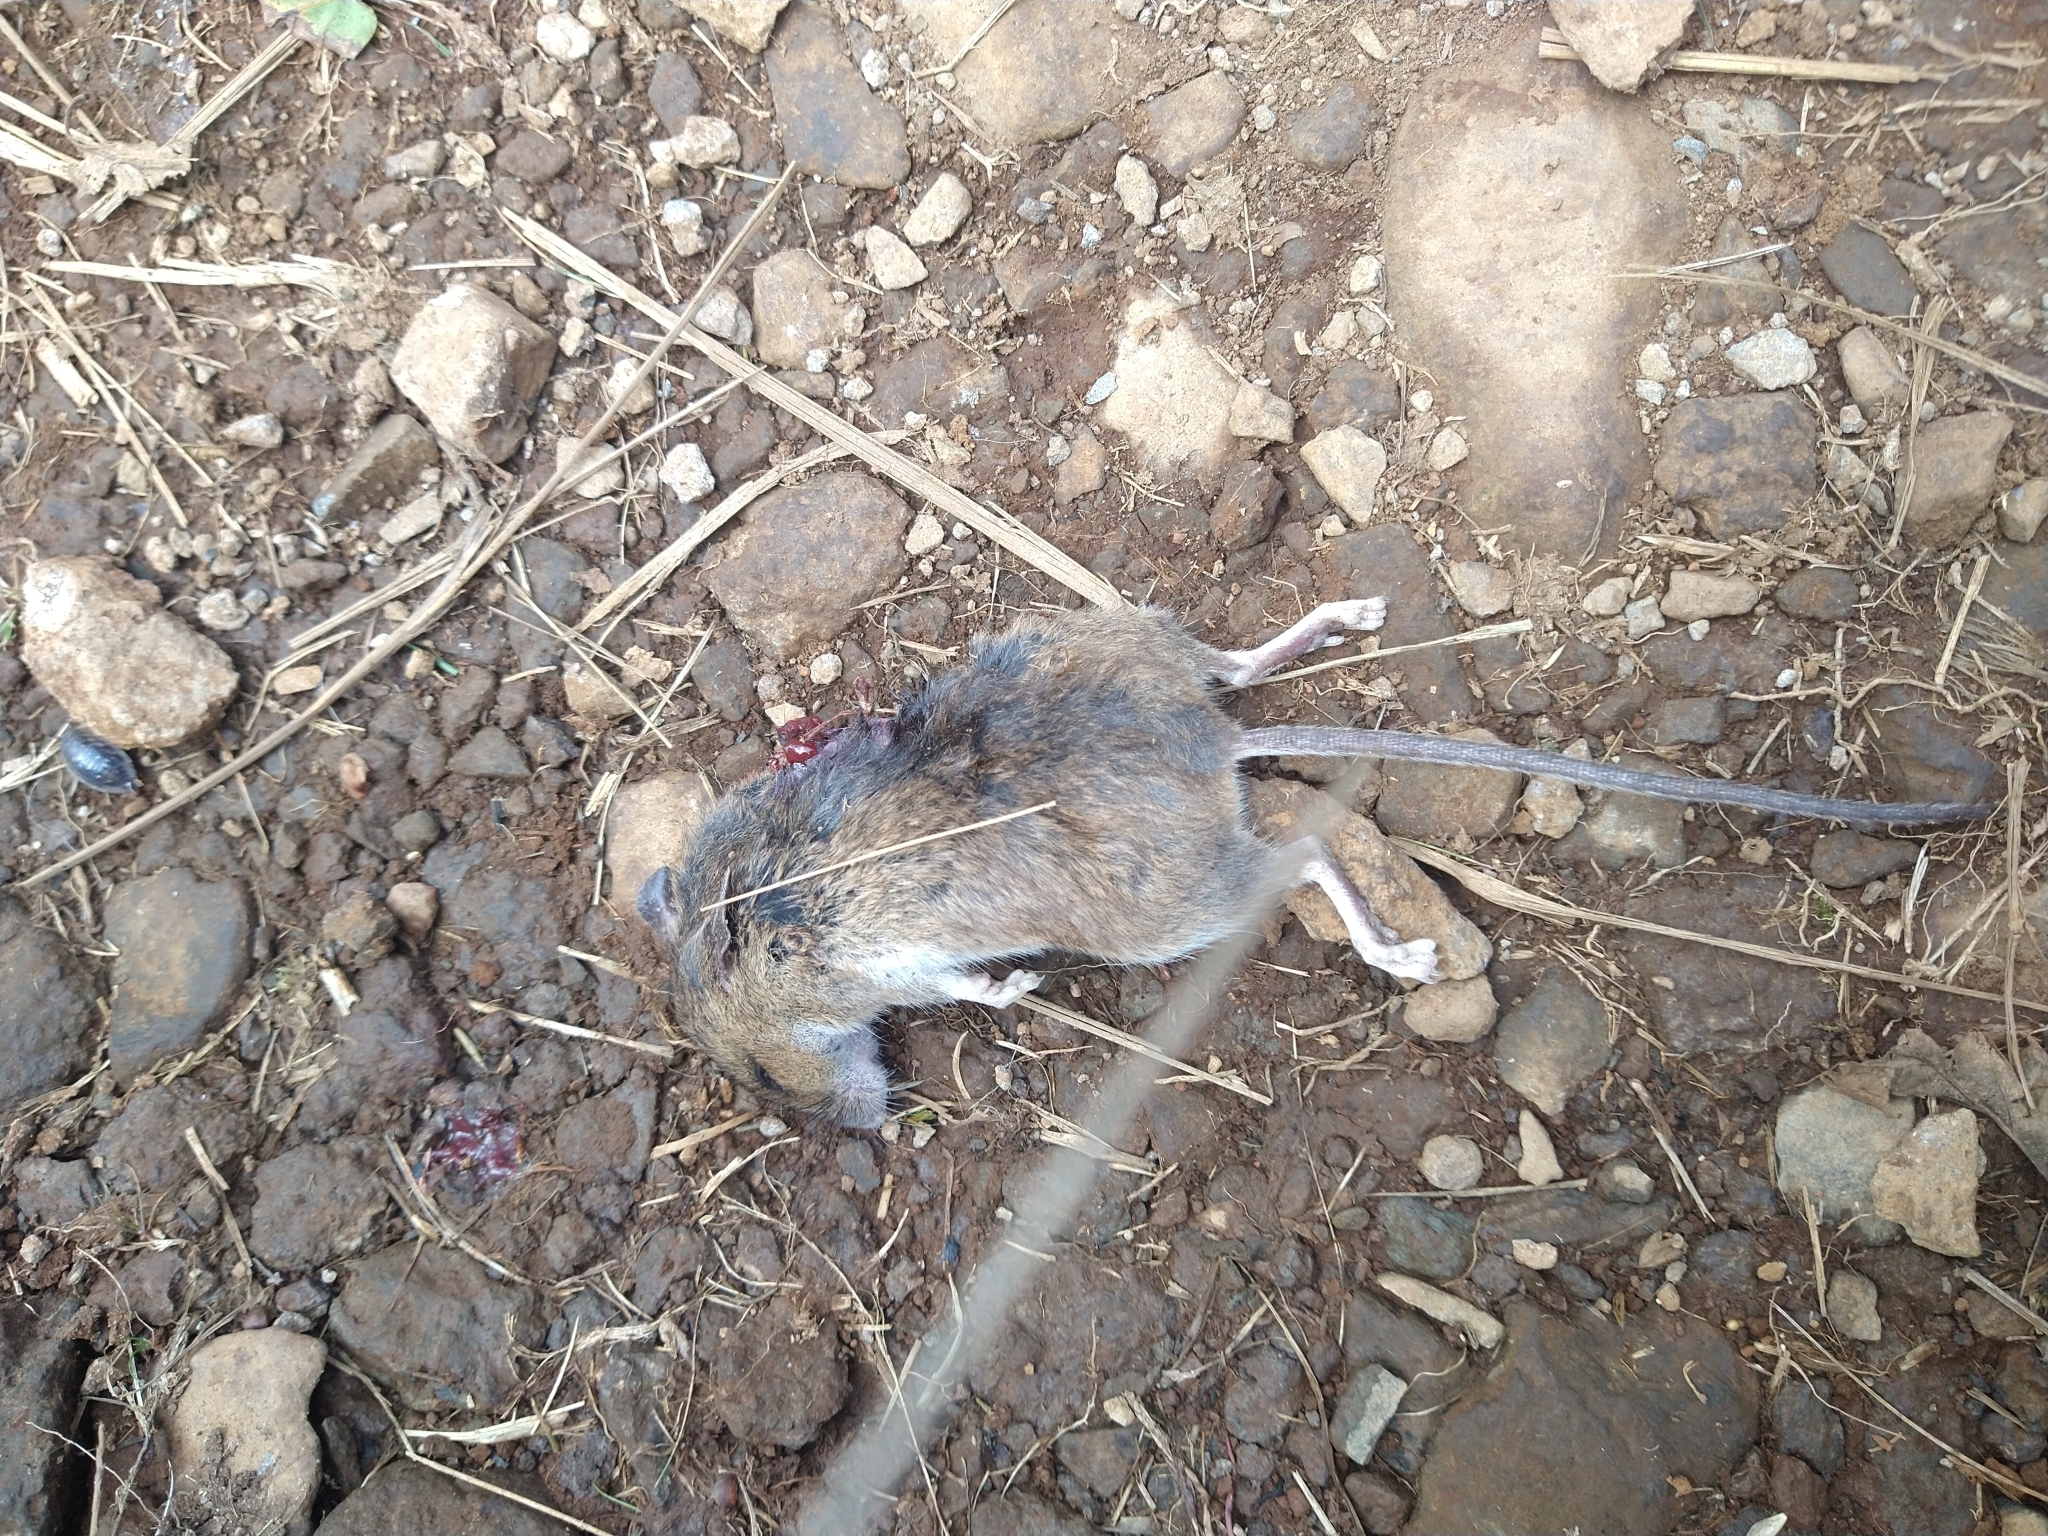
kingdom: Animalia
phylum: Chordata
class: Mammalia
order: Rodentia
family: Muridae
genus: Apodemus
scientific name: Apodemus sylvaticus
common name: Wood mouse
